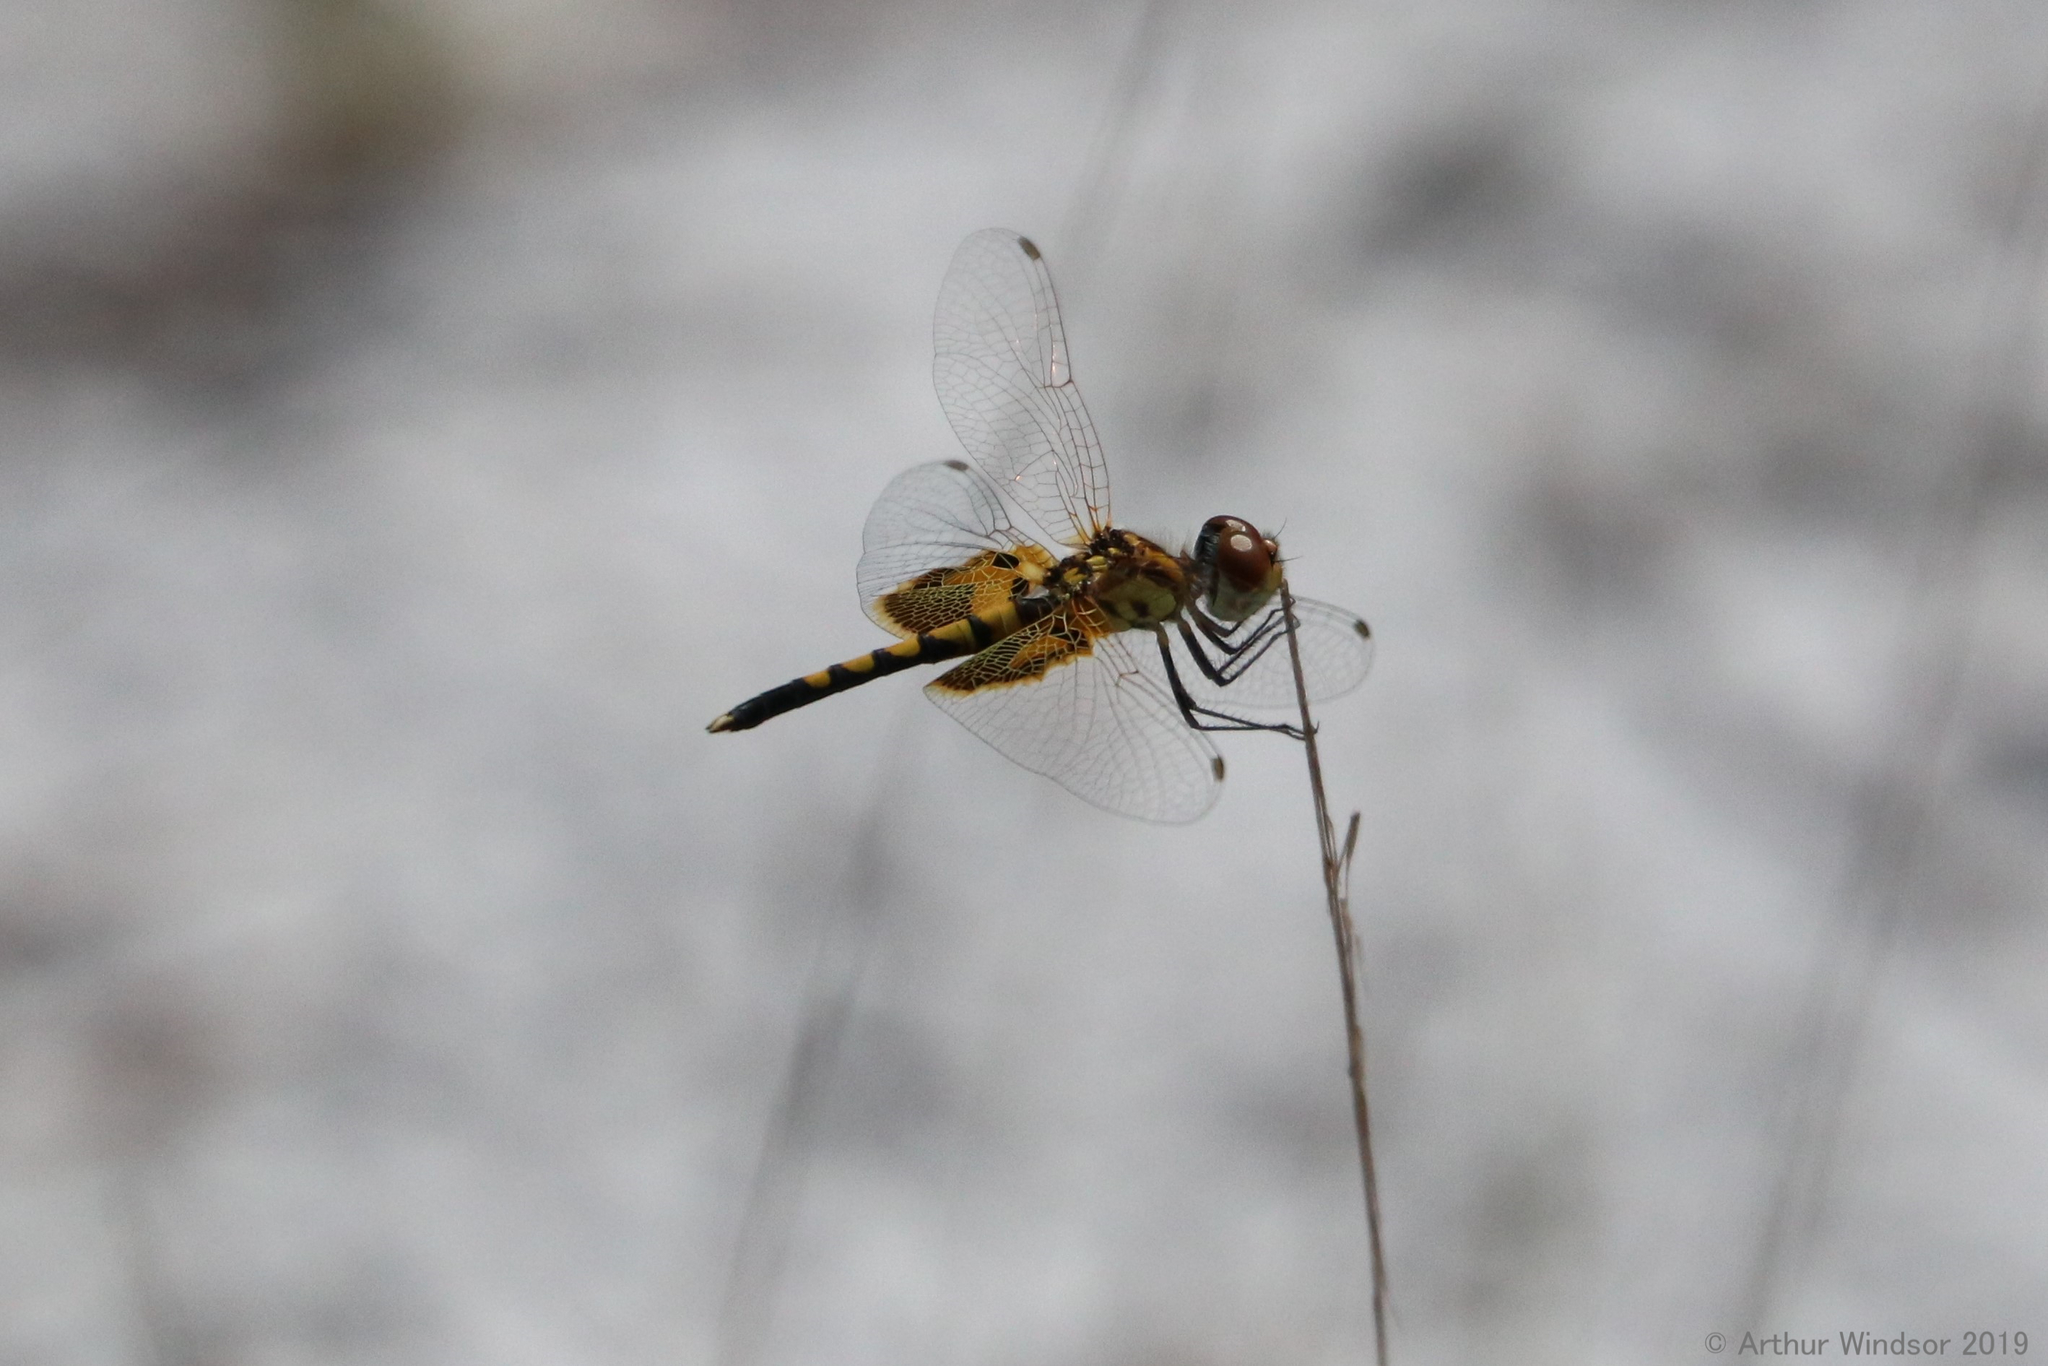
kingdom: Animalia
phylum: Arthropoda
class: Insecta
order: Odonata
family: Libellulidae
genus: Celithemis
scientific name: Celithemis amanda
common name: Amanda's pennant
